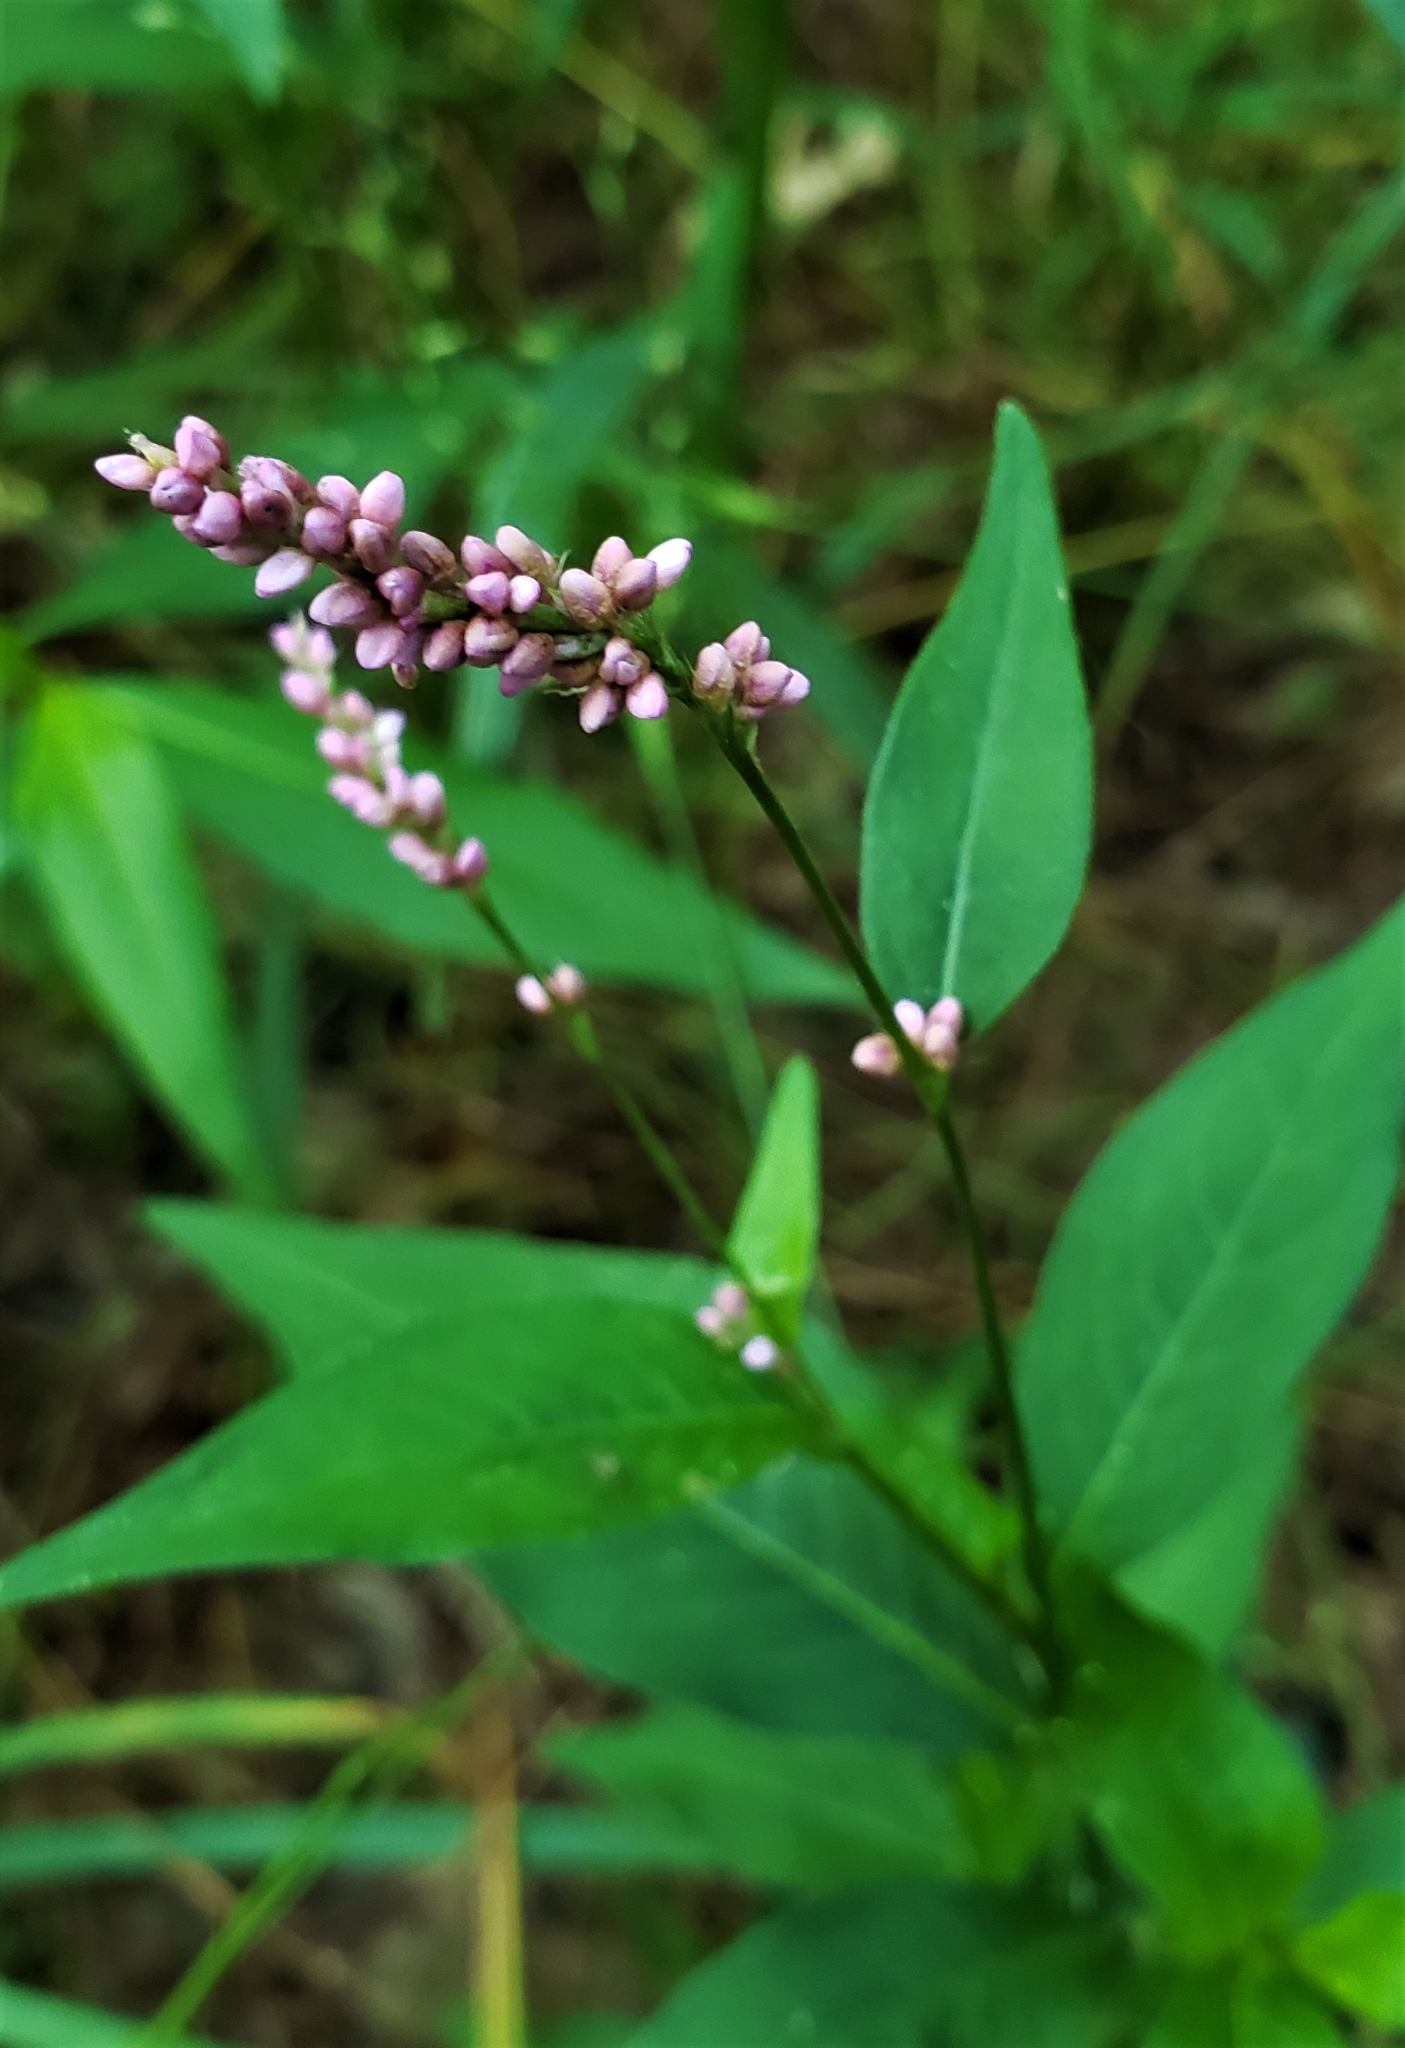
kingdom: Plantae
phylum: Tracheophyta
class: Magnoliopsida
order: Caryophyllales
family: Polygonaceae
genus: Persicaria
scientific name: Persicaria longiseta
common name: Bristly lady's-thumb
